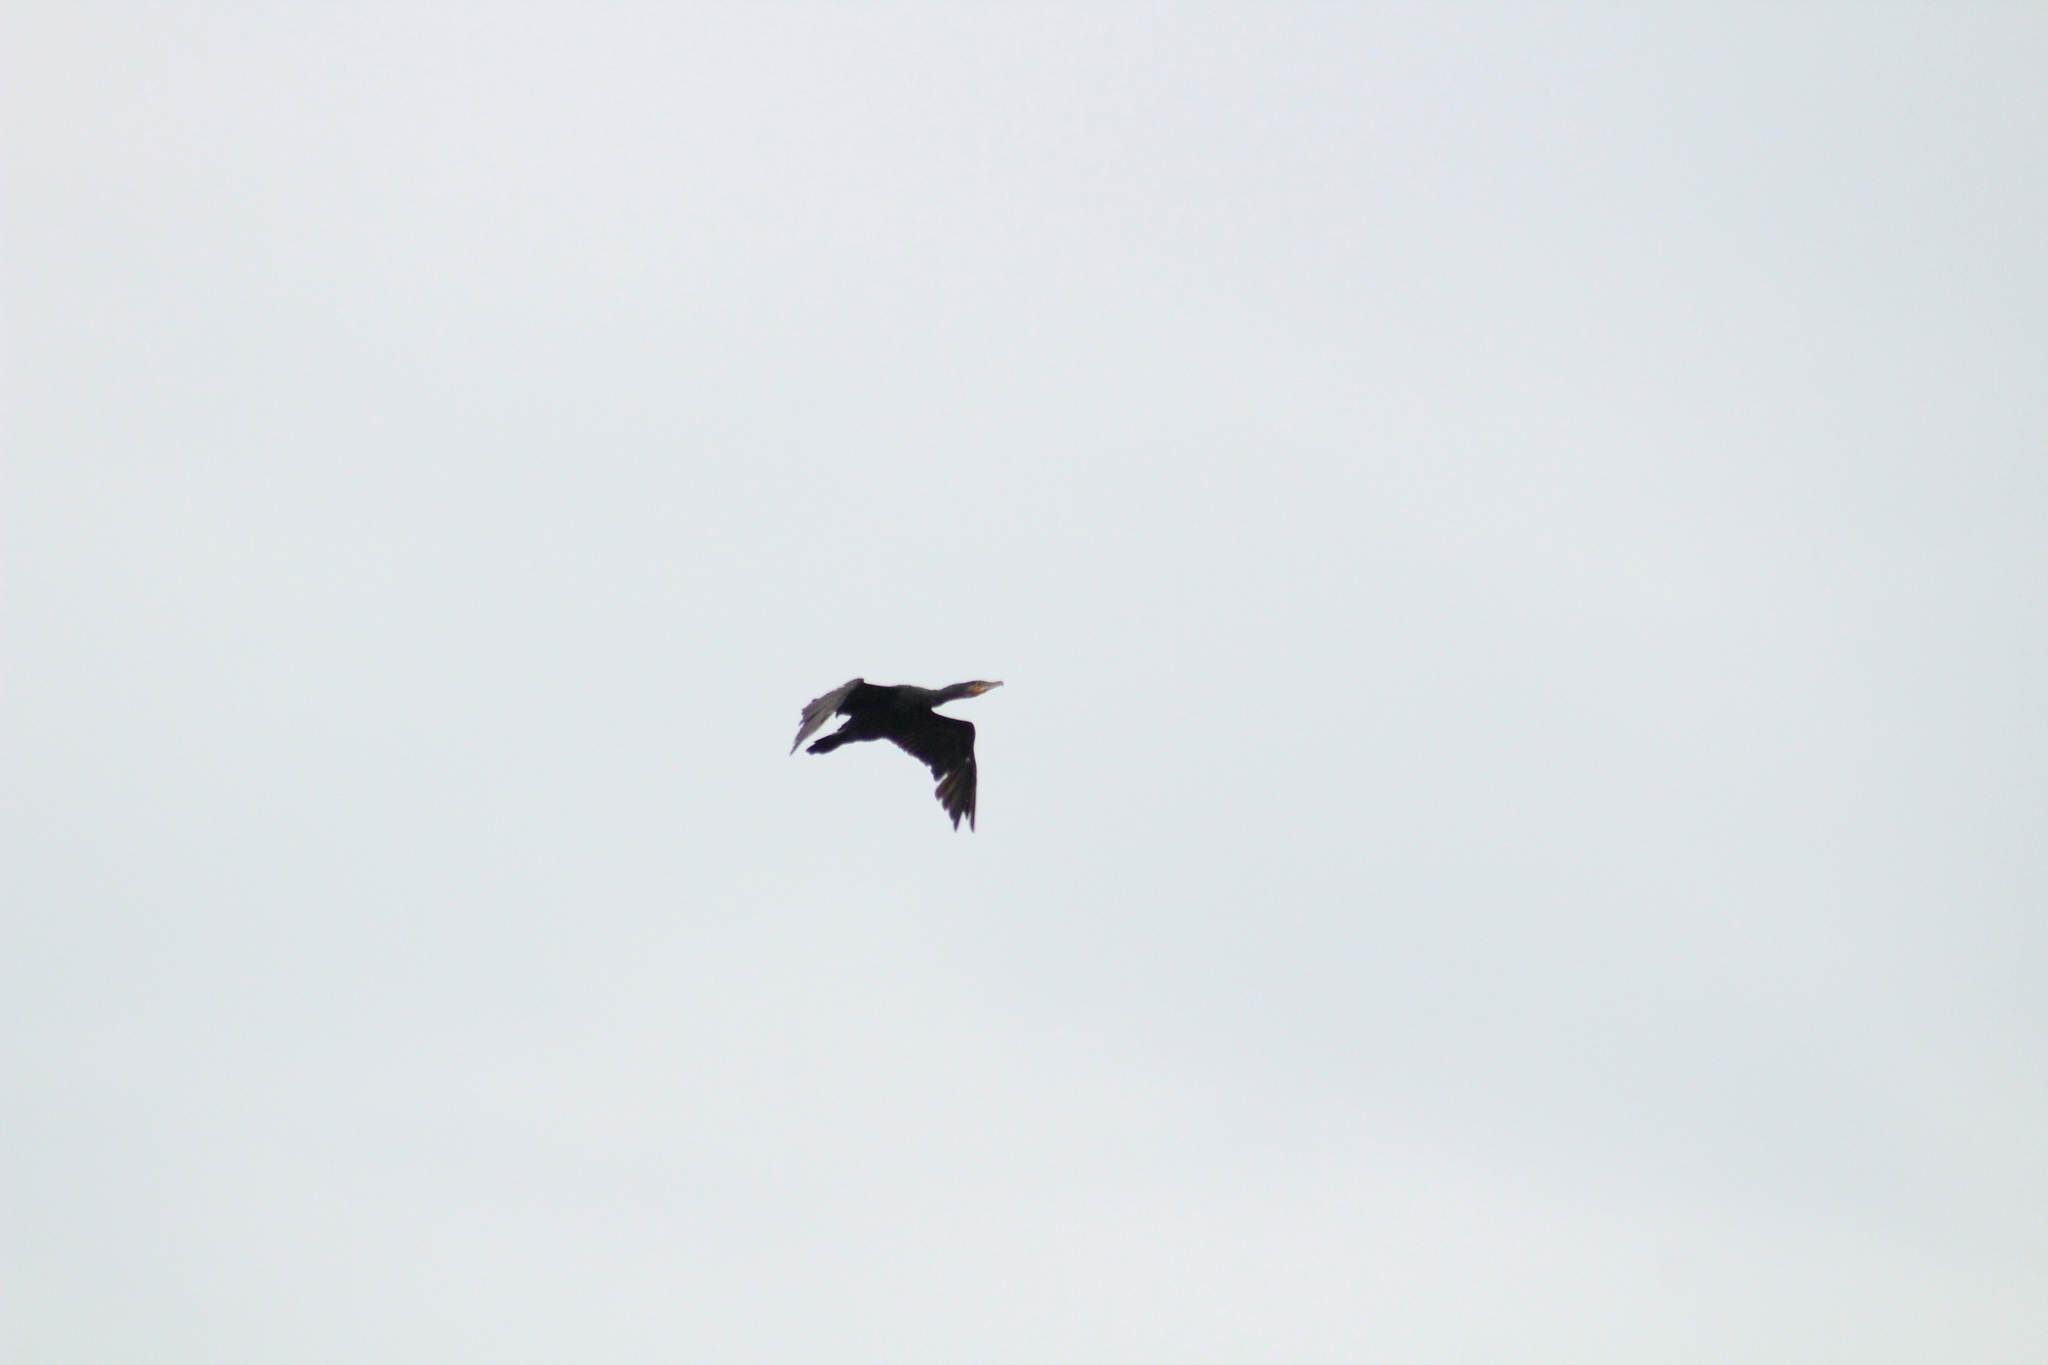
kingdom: Animalia
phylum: Chordata
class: Aves
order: Suliformes
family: Phalacrocoracidae
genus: Phalacrocorax
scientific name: Phalacrocorax carbo
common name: Great cormorant
